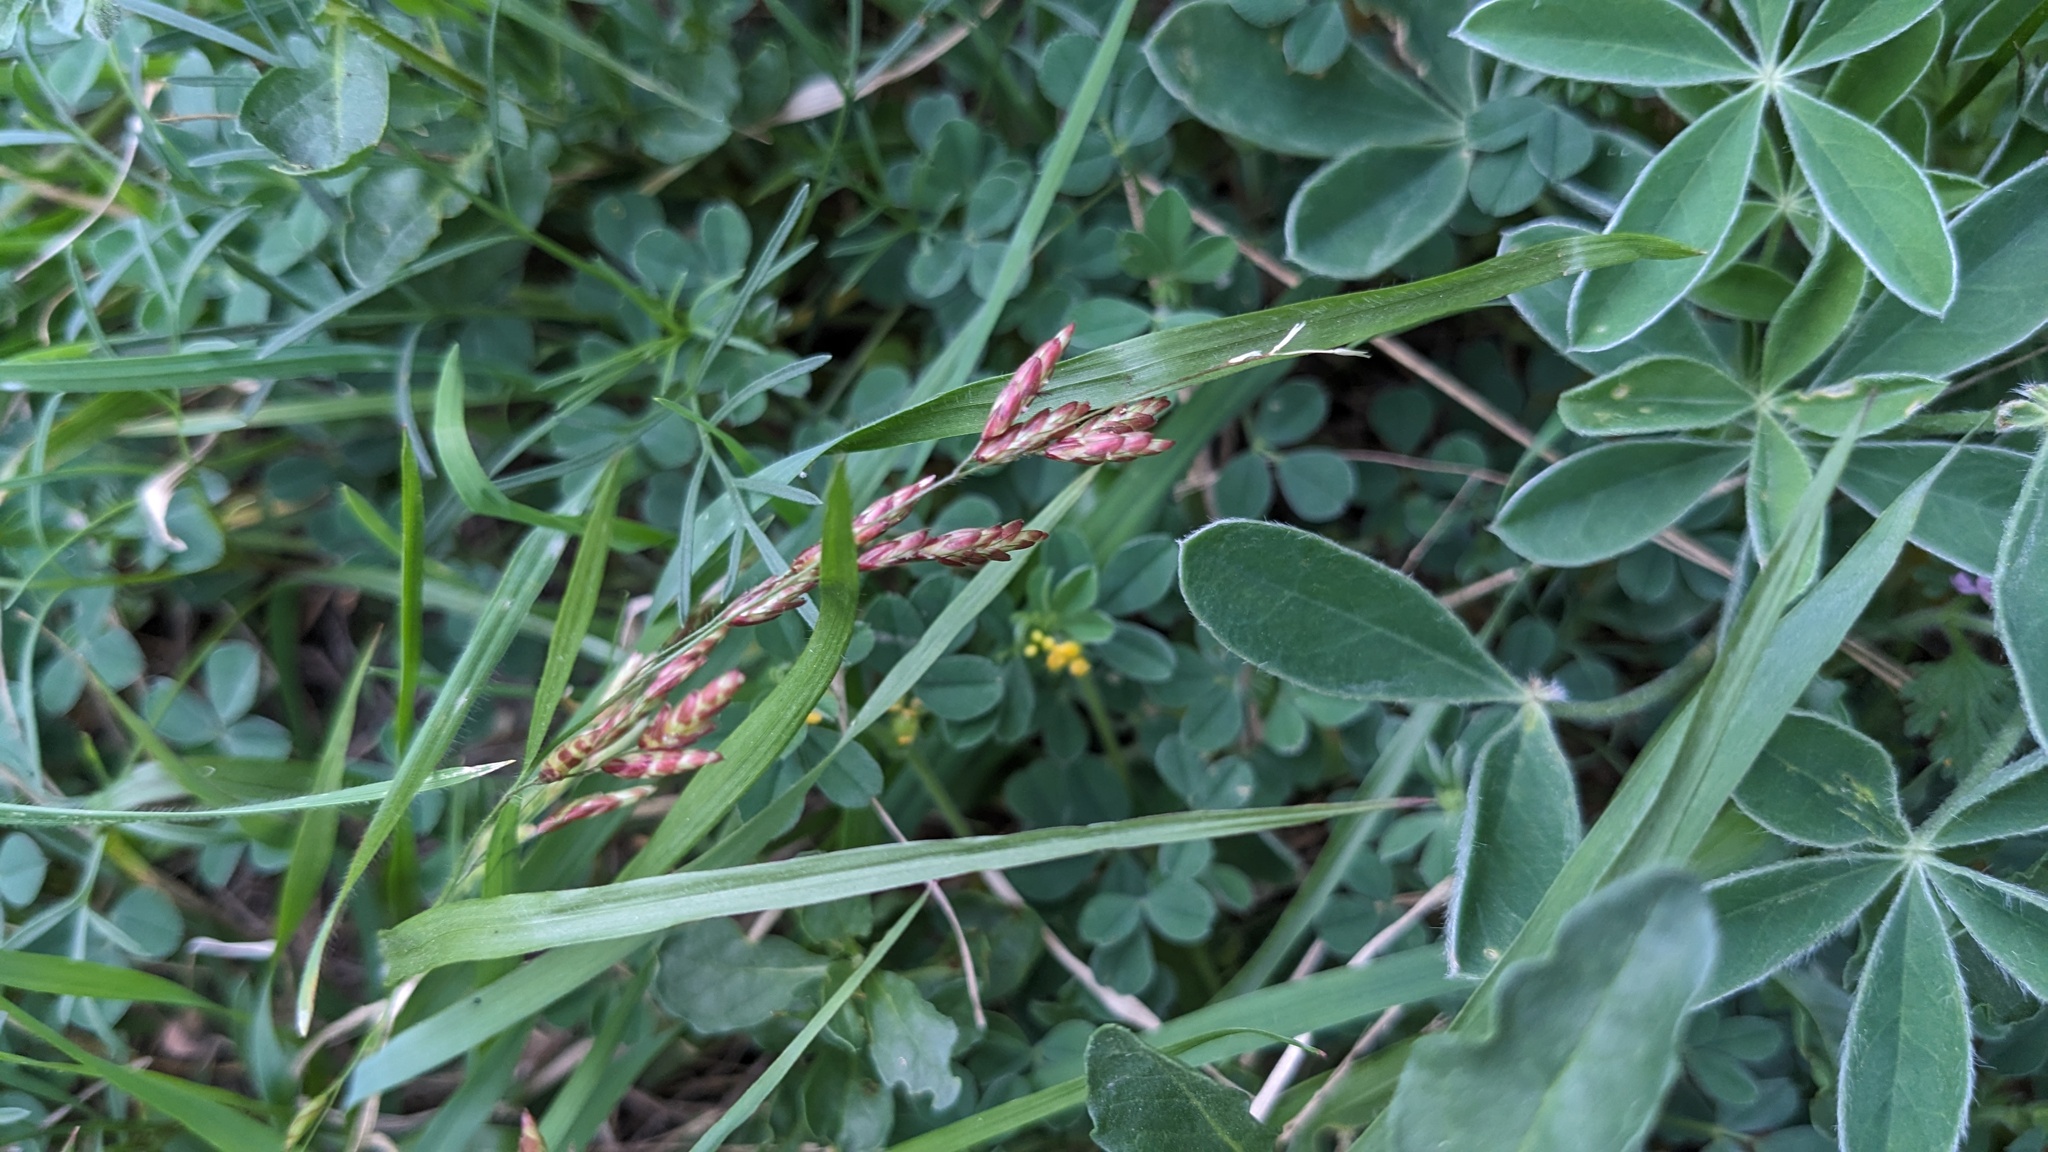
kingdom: Plantae
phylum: Tracheophyta
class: Liliopsida
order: Poales
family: Poaceae
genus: Tridens
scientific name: Tridens texanus
